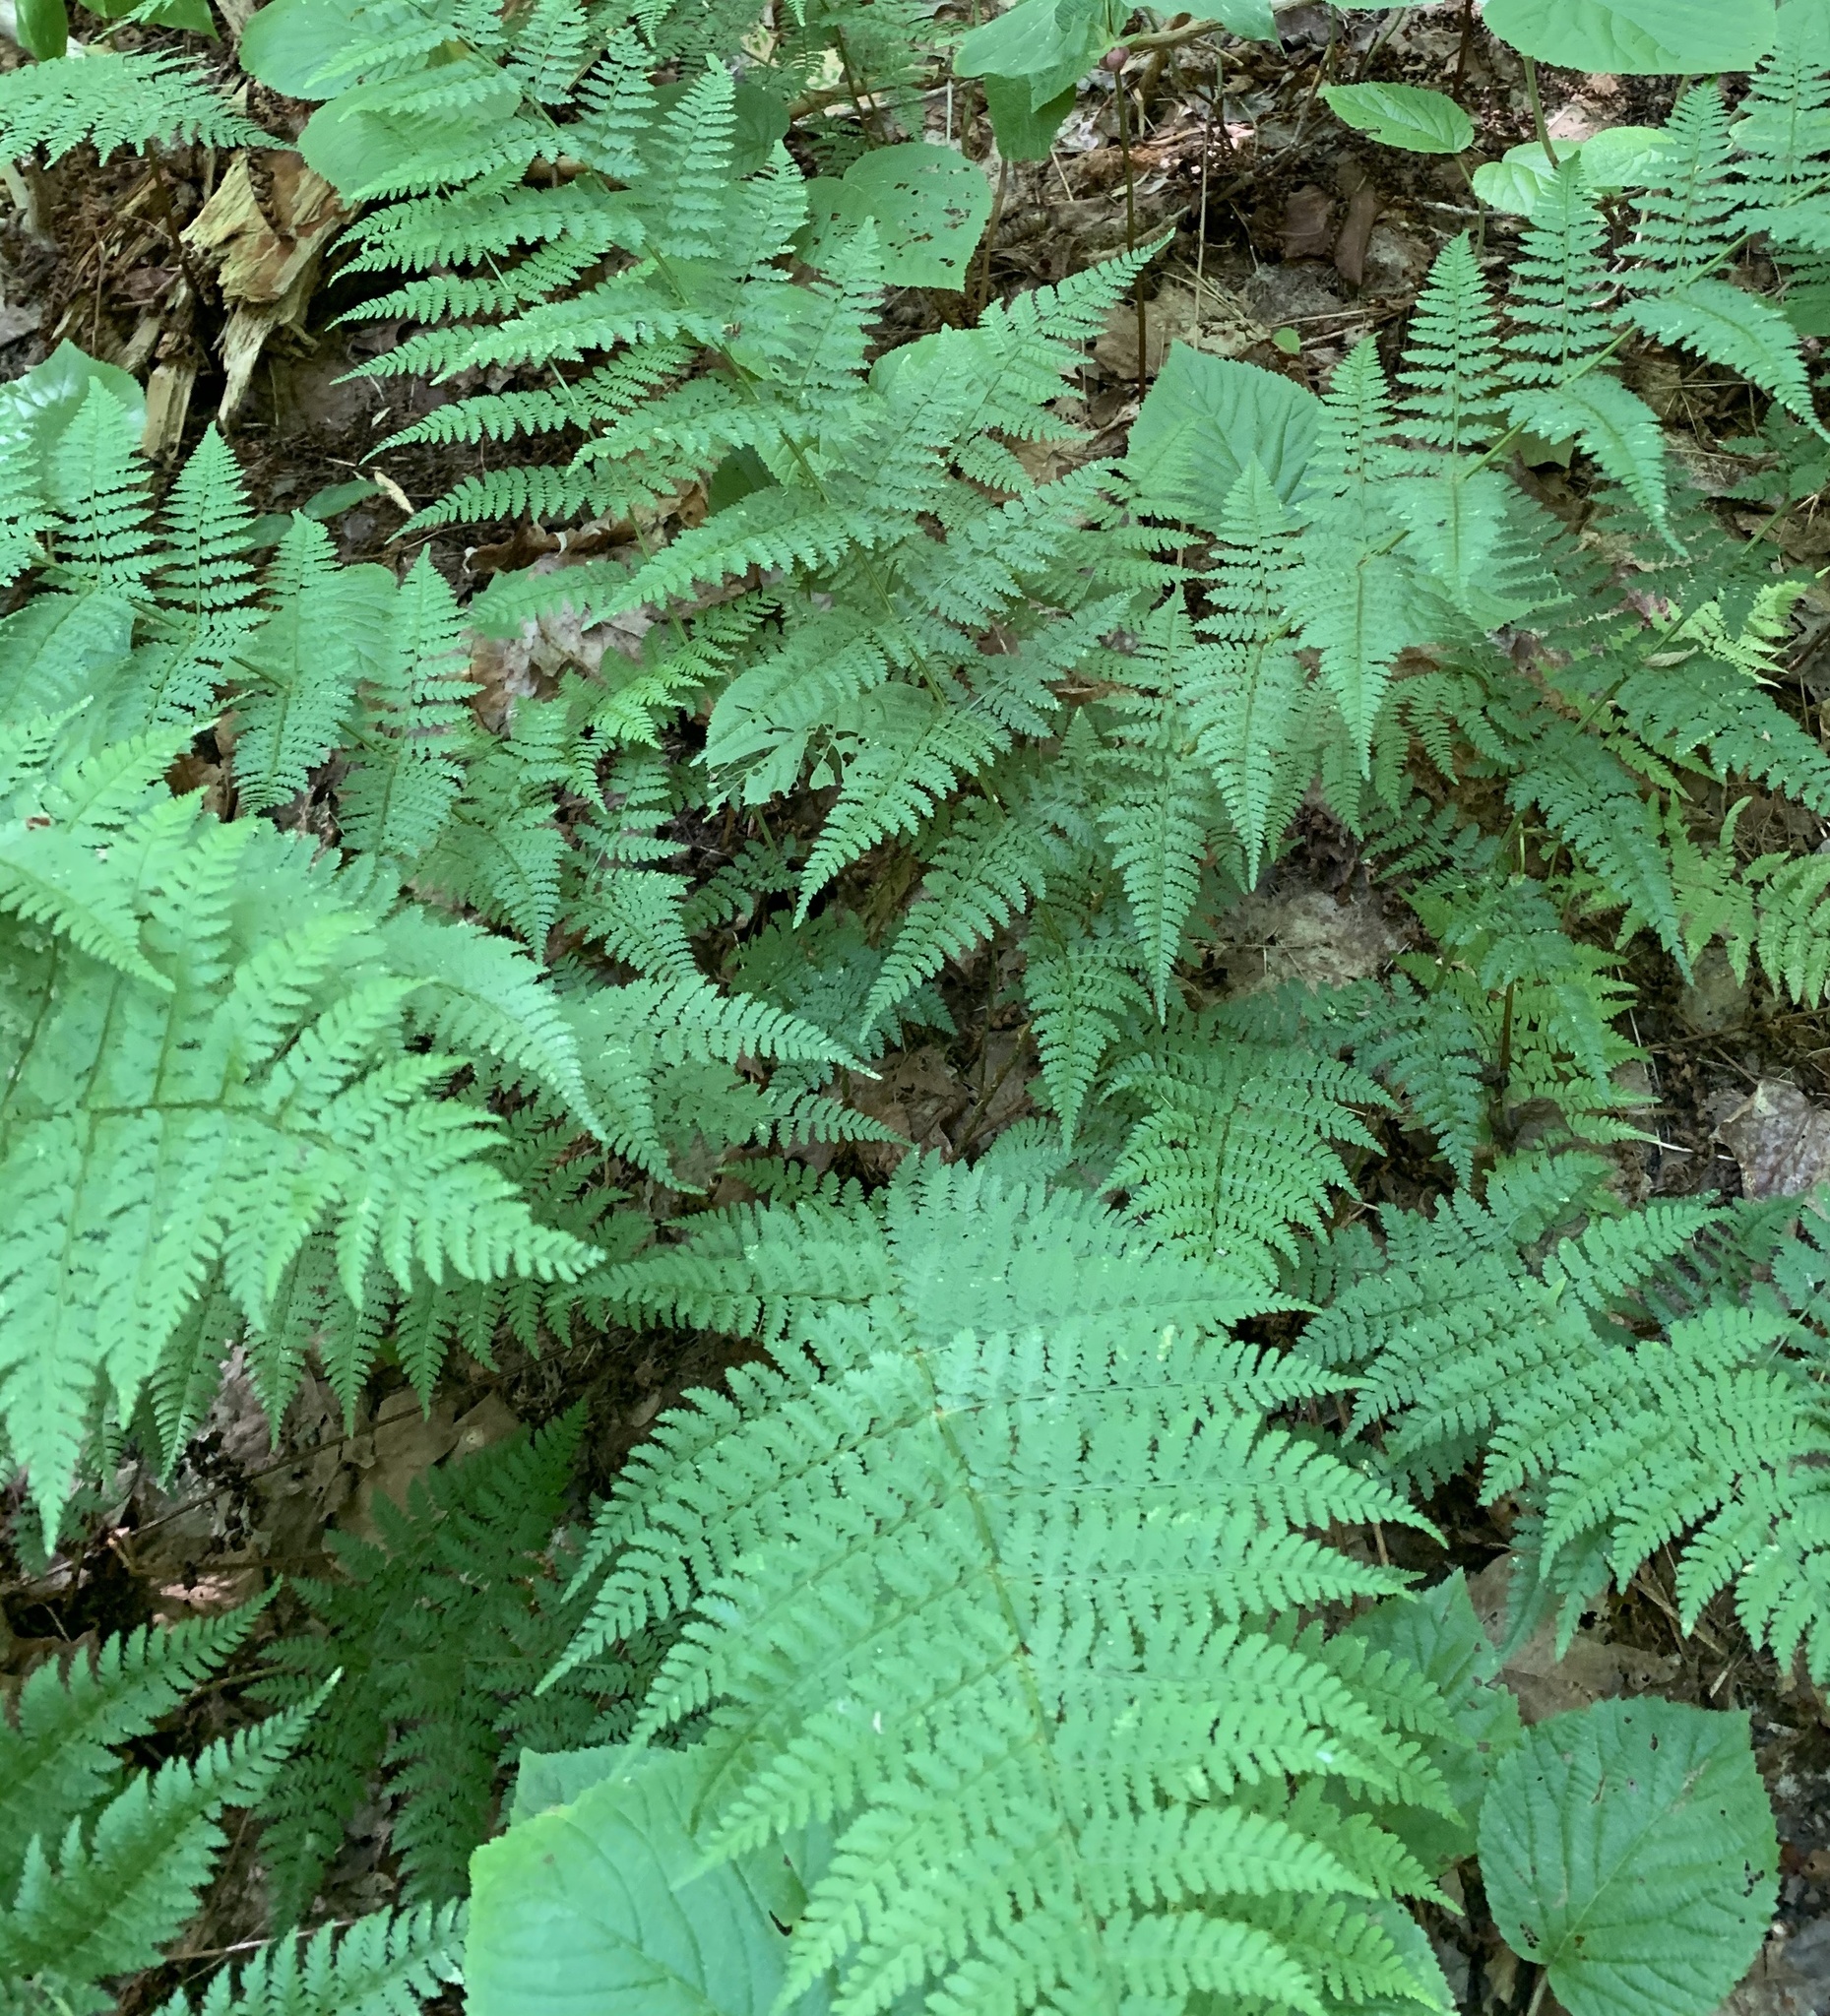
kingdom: Plantae
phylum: Tracheophyta
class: Polypodiopsida
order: Polypodiales
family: Dryopteridaceae
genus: Dryopteris
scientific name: Dryopteris intermedia
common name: Evergreen wood fern
